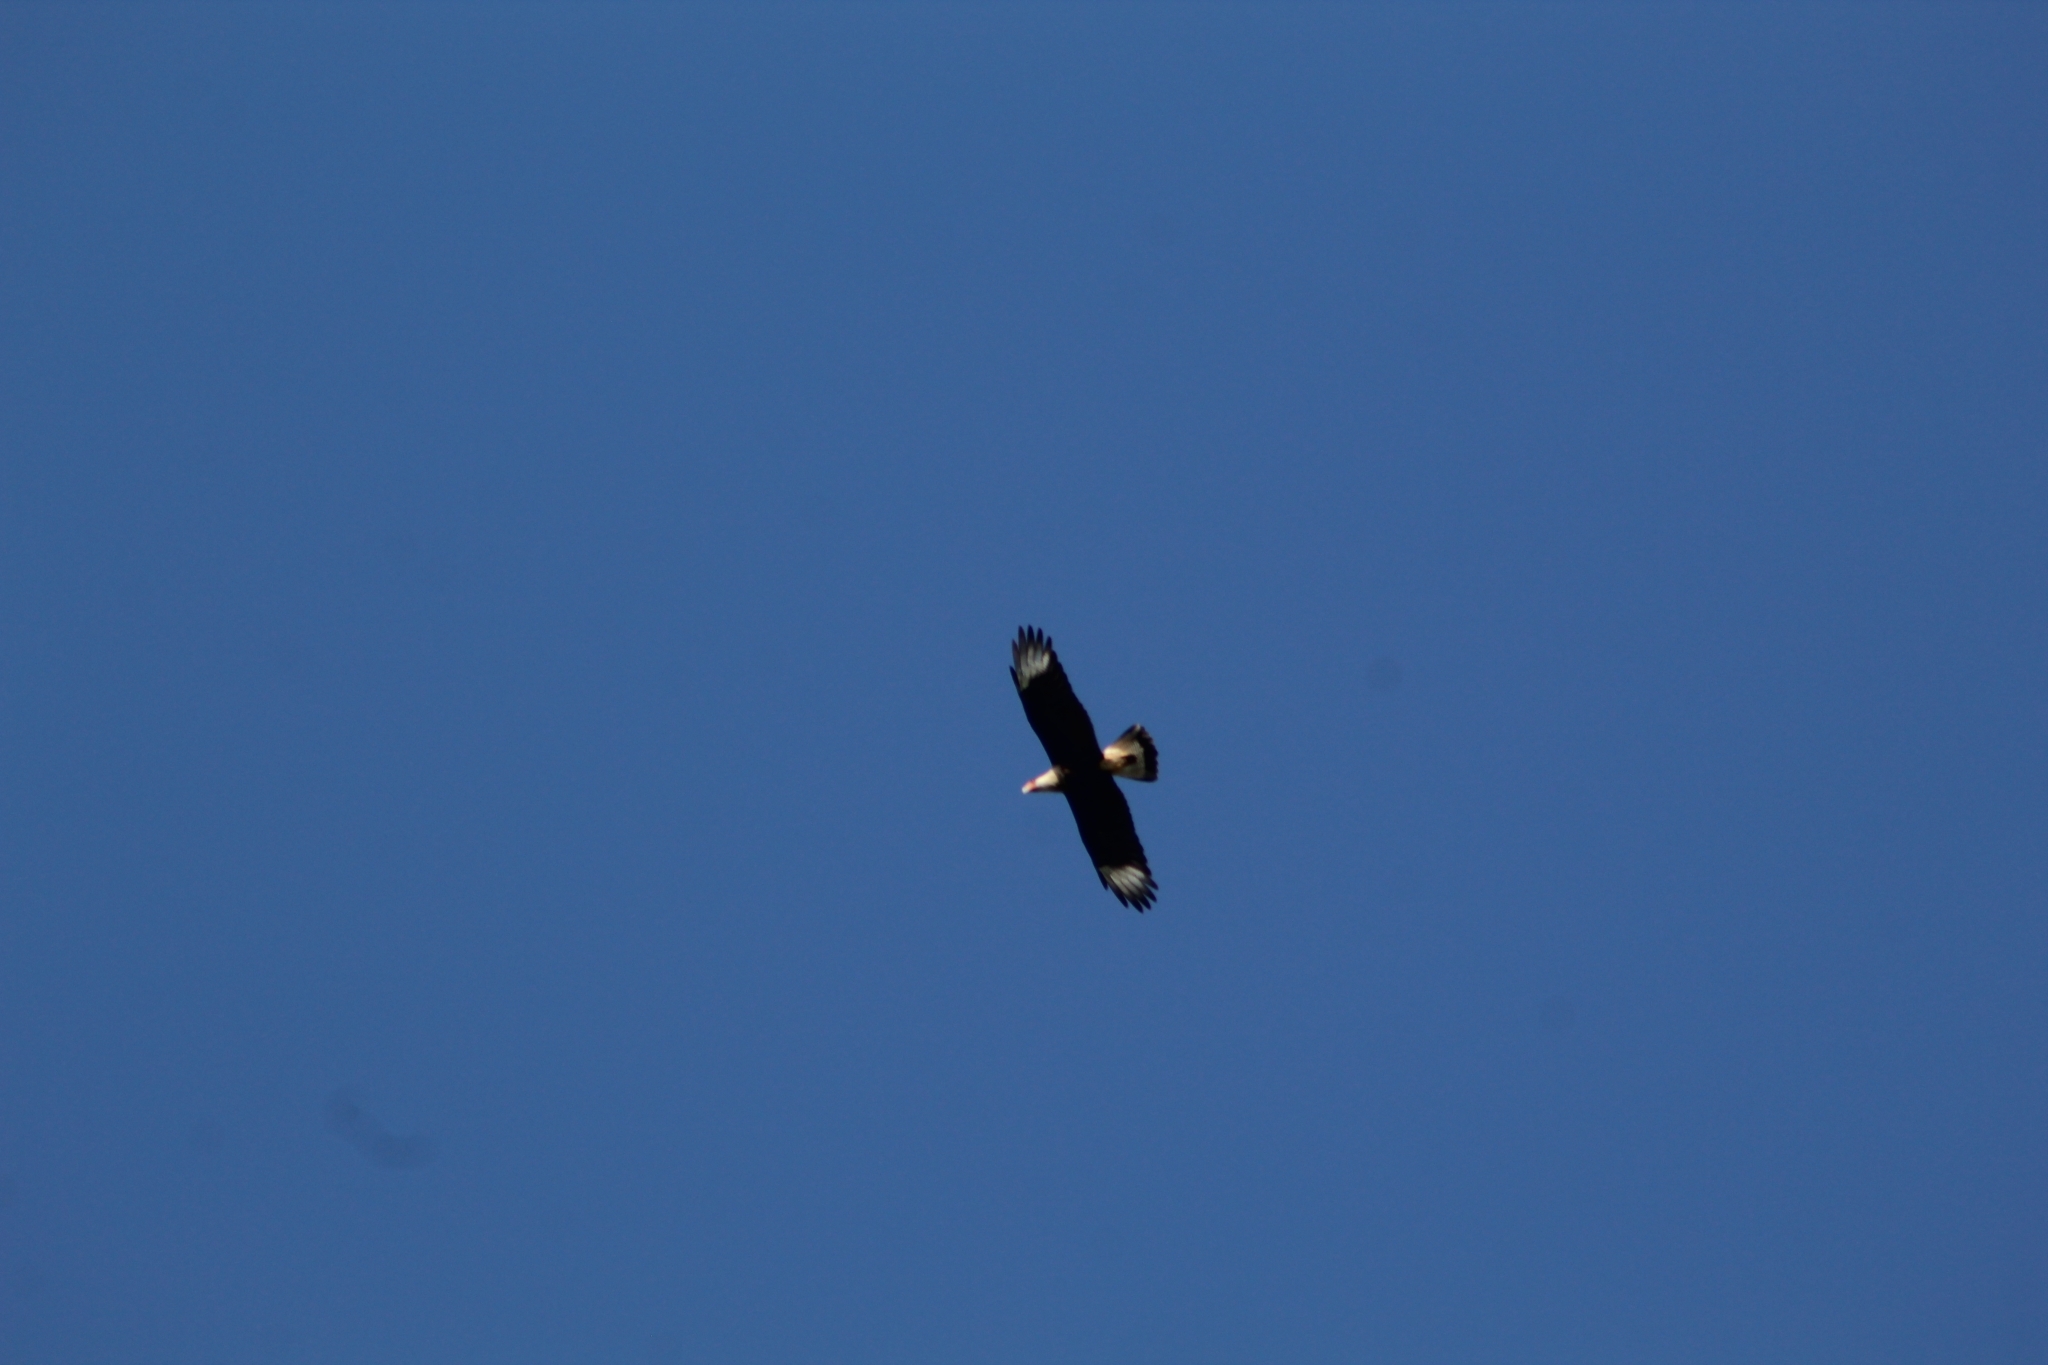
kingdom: Animalia
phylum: Chordata
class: Aves
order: Falconiformes
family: Falconidae
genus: Caracara
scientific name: Caracara plancus
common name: Southern caracara
